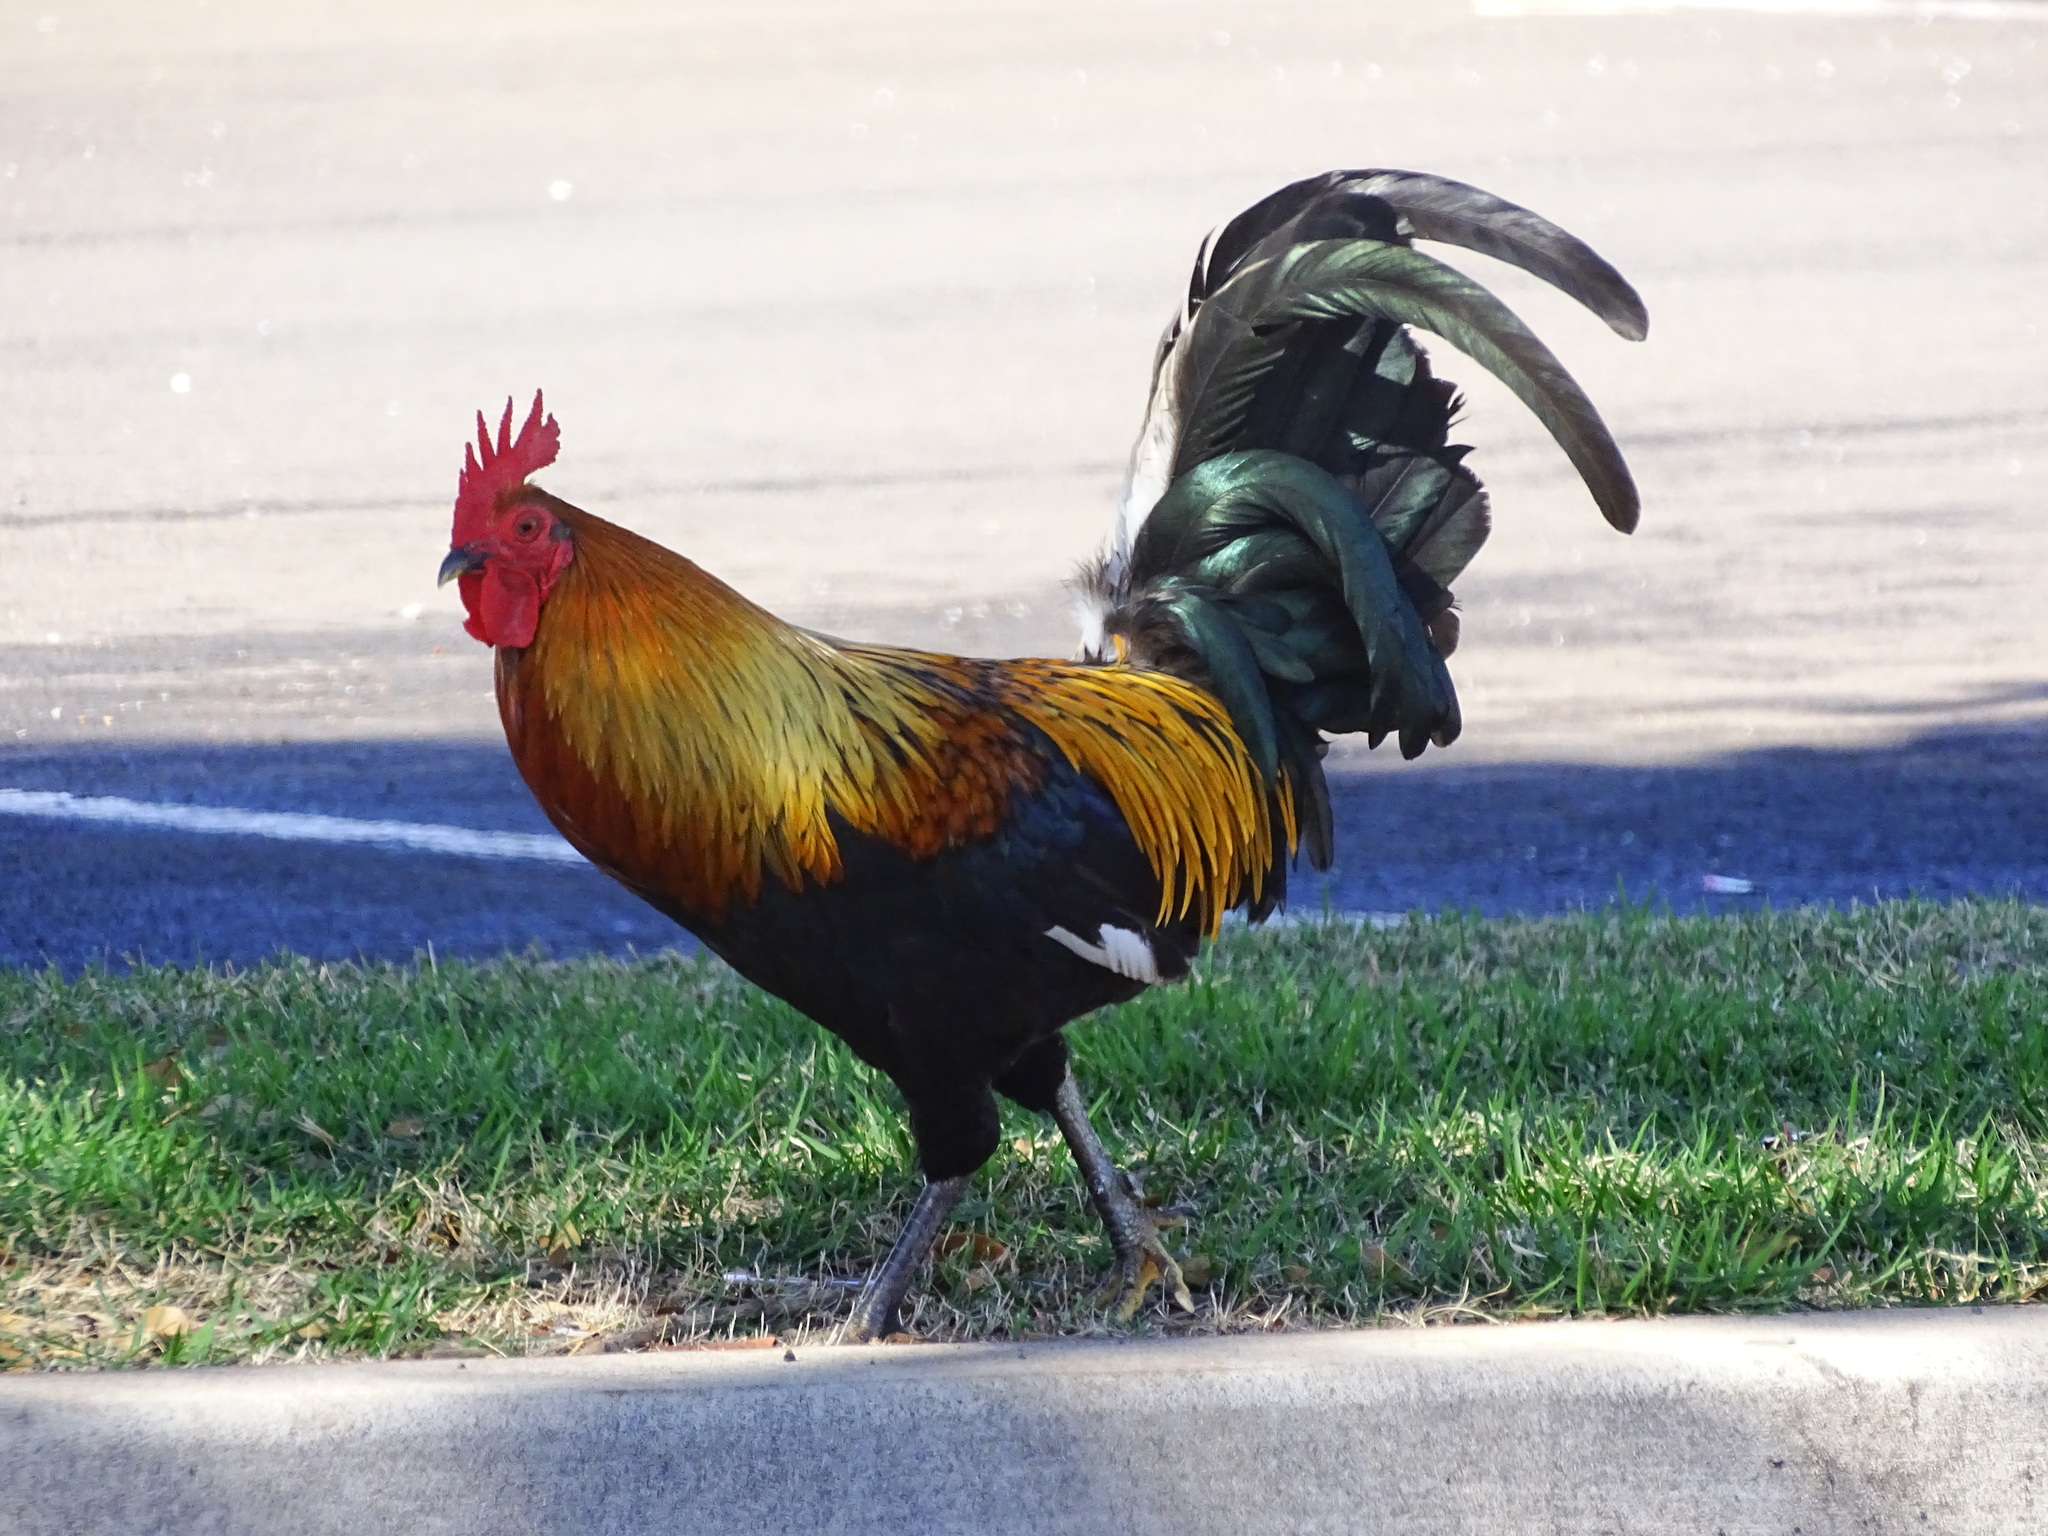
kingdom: Animalia
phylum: Chordata
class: Aves
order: Galliformes
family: Phasianidae
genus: Gallus
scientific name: Gallus gallus
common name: Red junglefowl
